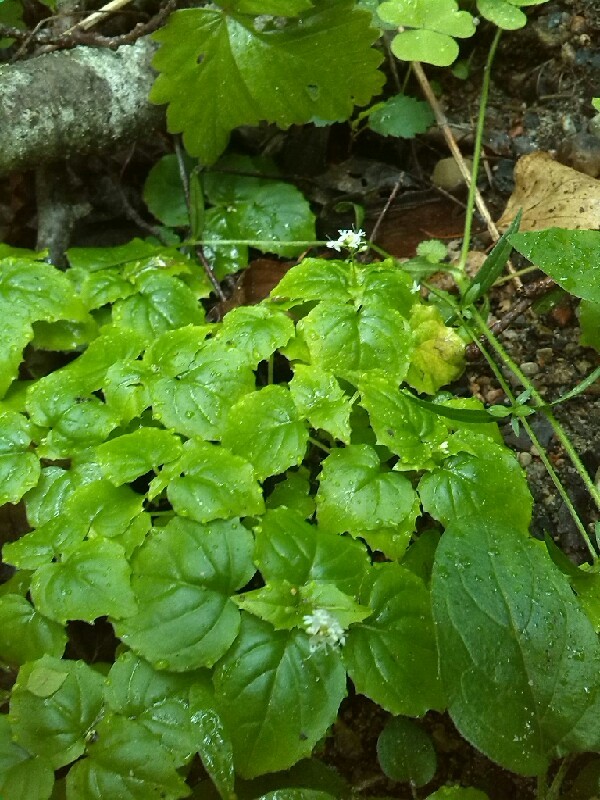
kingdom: Plantae
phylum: Tracheophyta
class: Magnoliopsida
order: Myrtales
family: Onagraceae
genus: Circaea
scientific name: Circaea alpina
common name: Alpine enchanter's-nightshade
